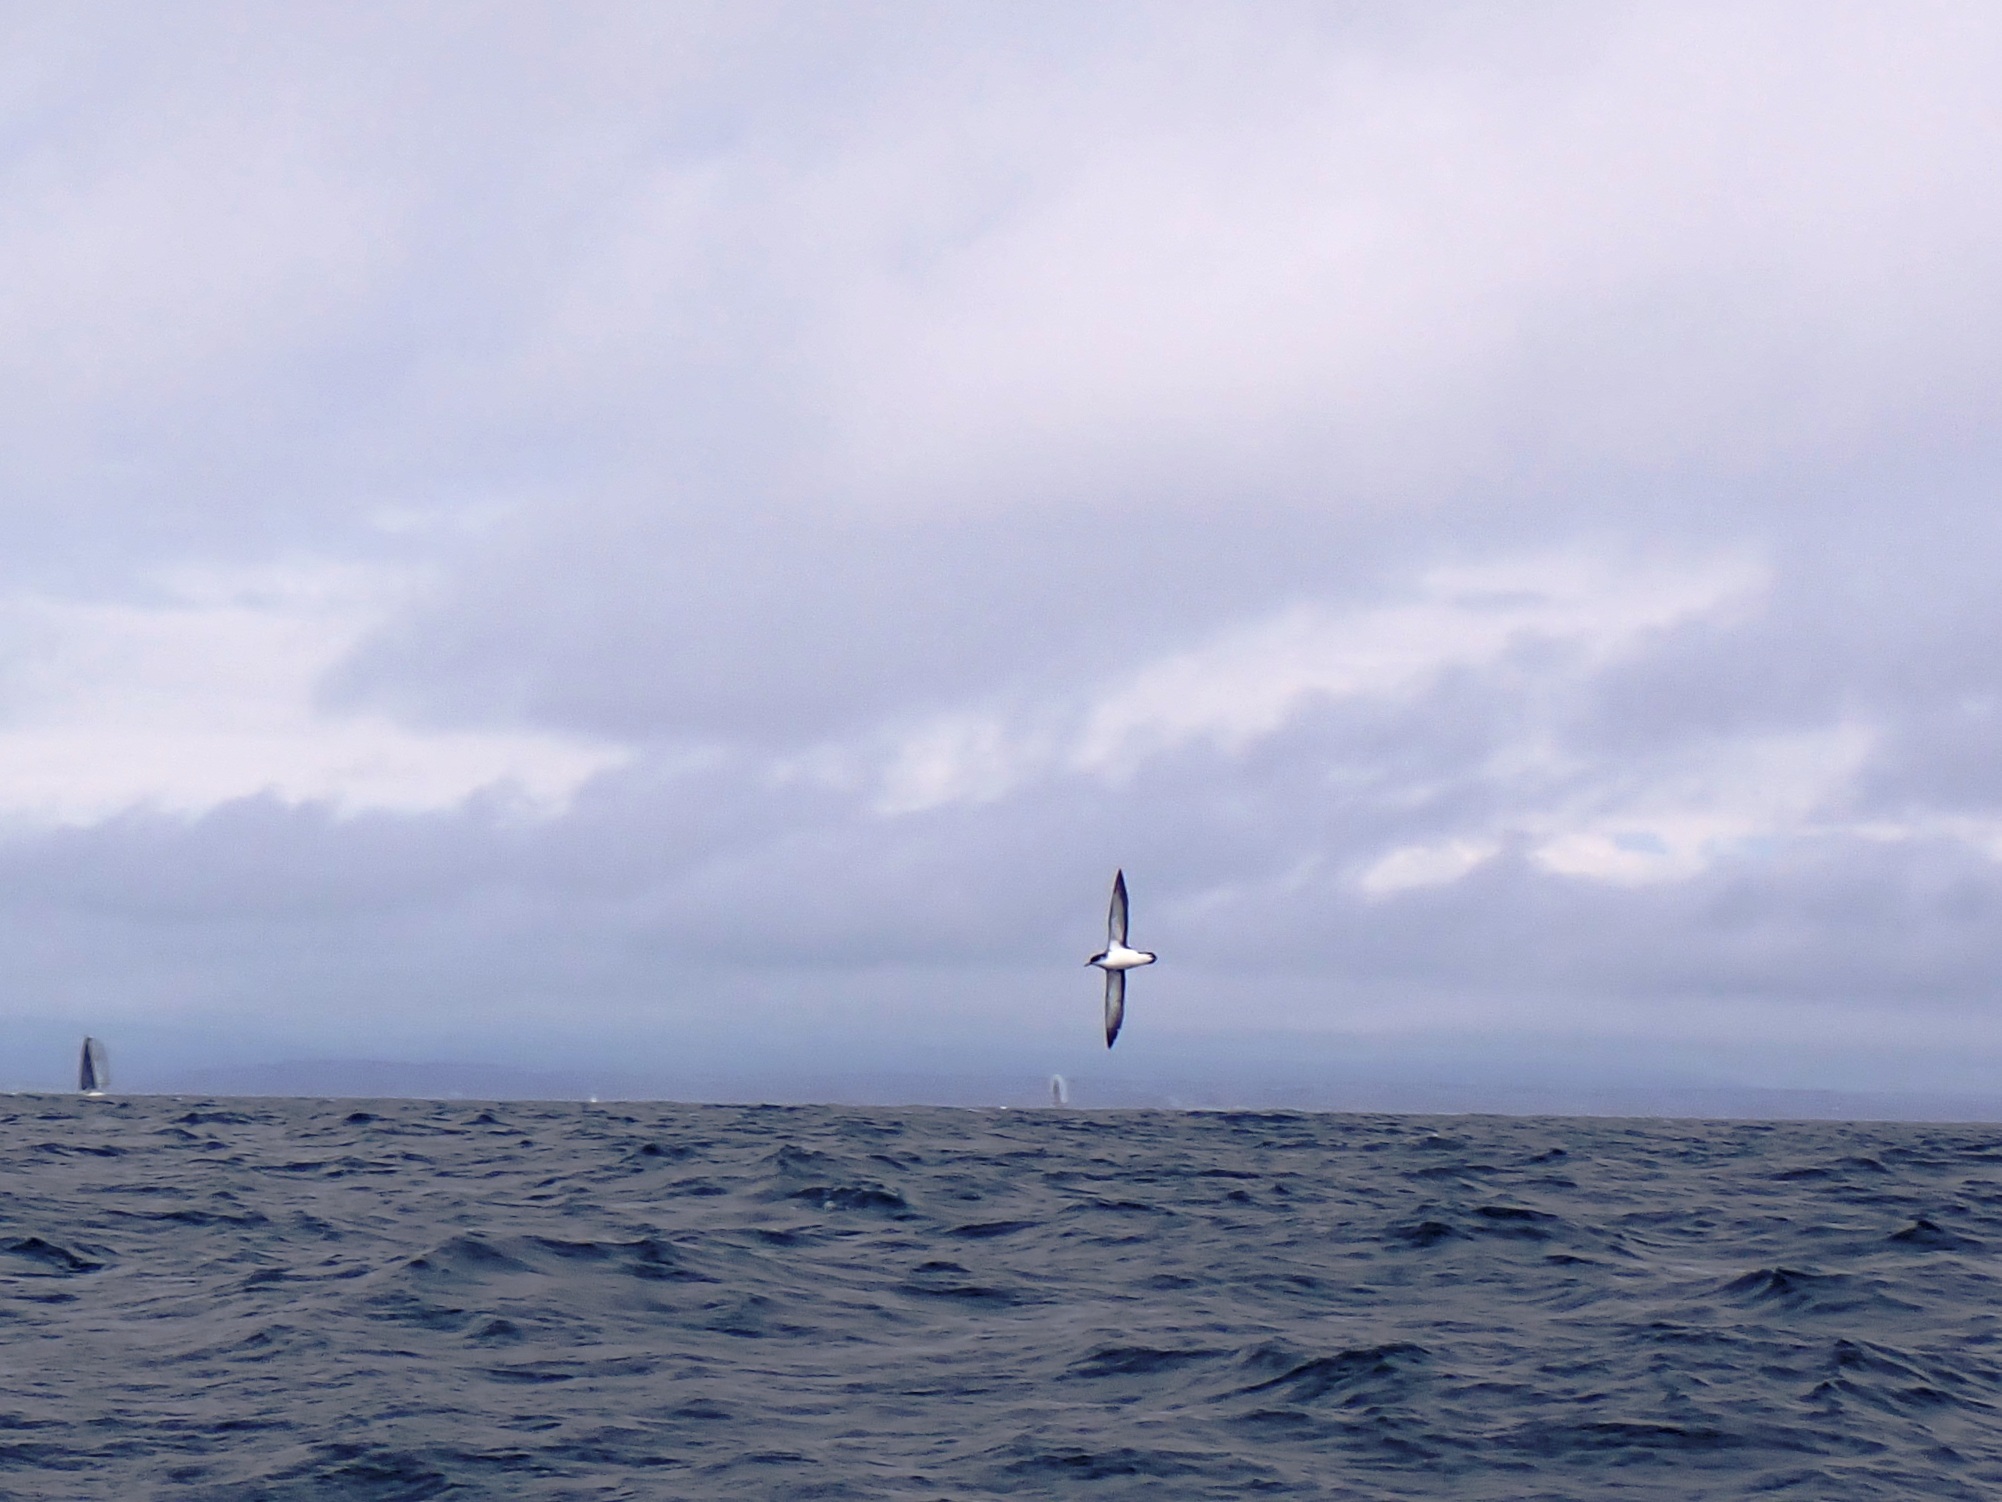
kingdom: Animalia
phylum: Chordata
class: Aves
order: Procellariiformes
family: Procellariidae
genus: Puffinus
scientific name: Puffinus puffinus
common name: Manx shearwater
